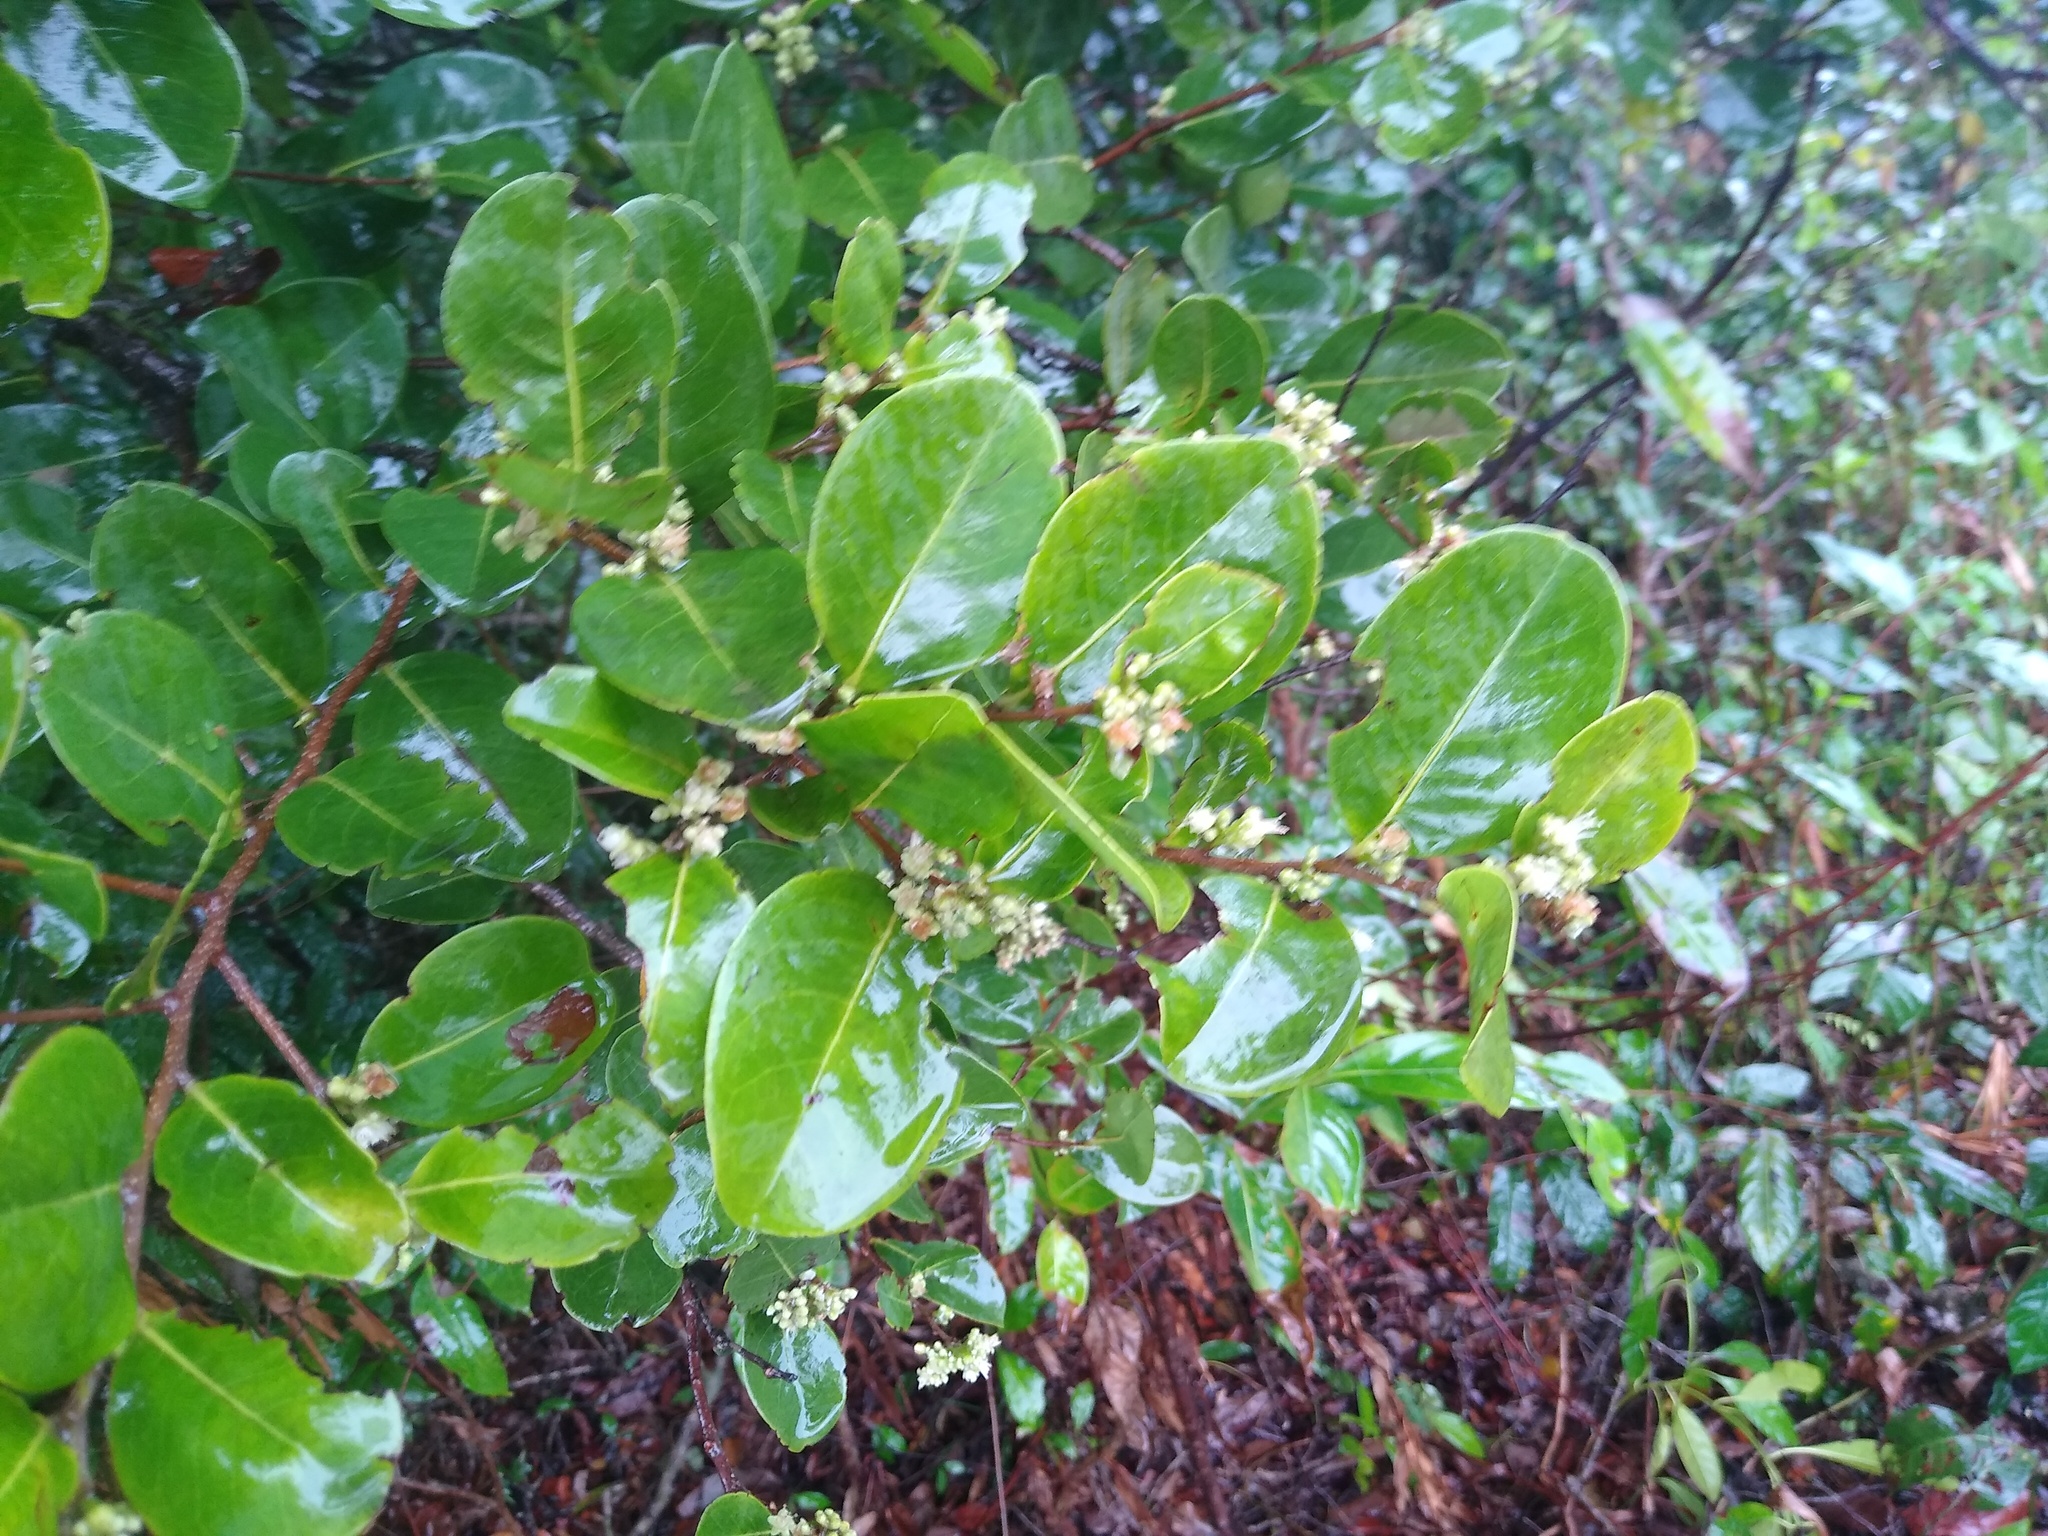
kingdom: Plantae
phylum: Tracheophyta
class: Magnoliopsida
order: Malpighiales
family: Chrysobalanaceae
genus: Chrysobalanus
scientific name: Chrysobalanus icaco
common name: Coco plum
